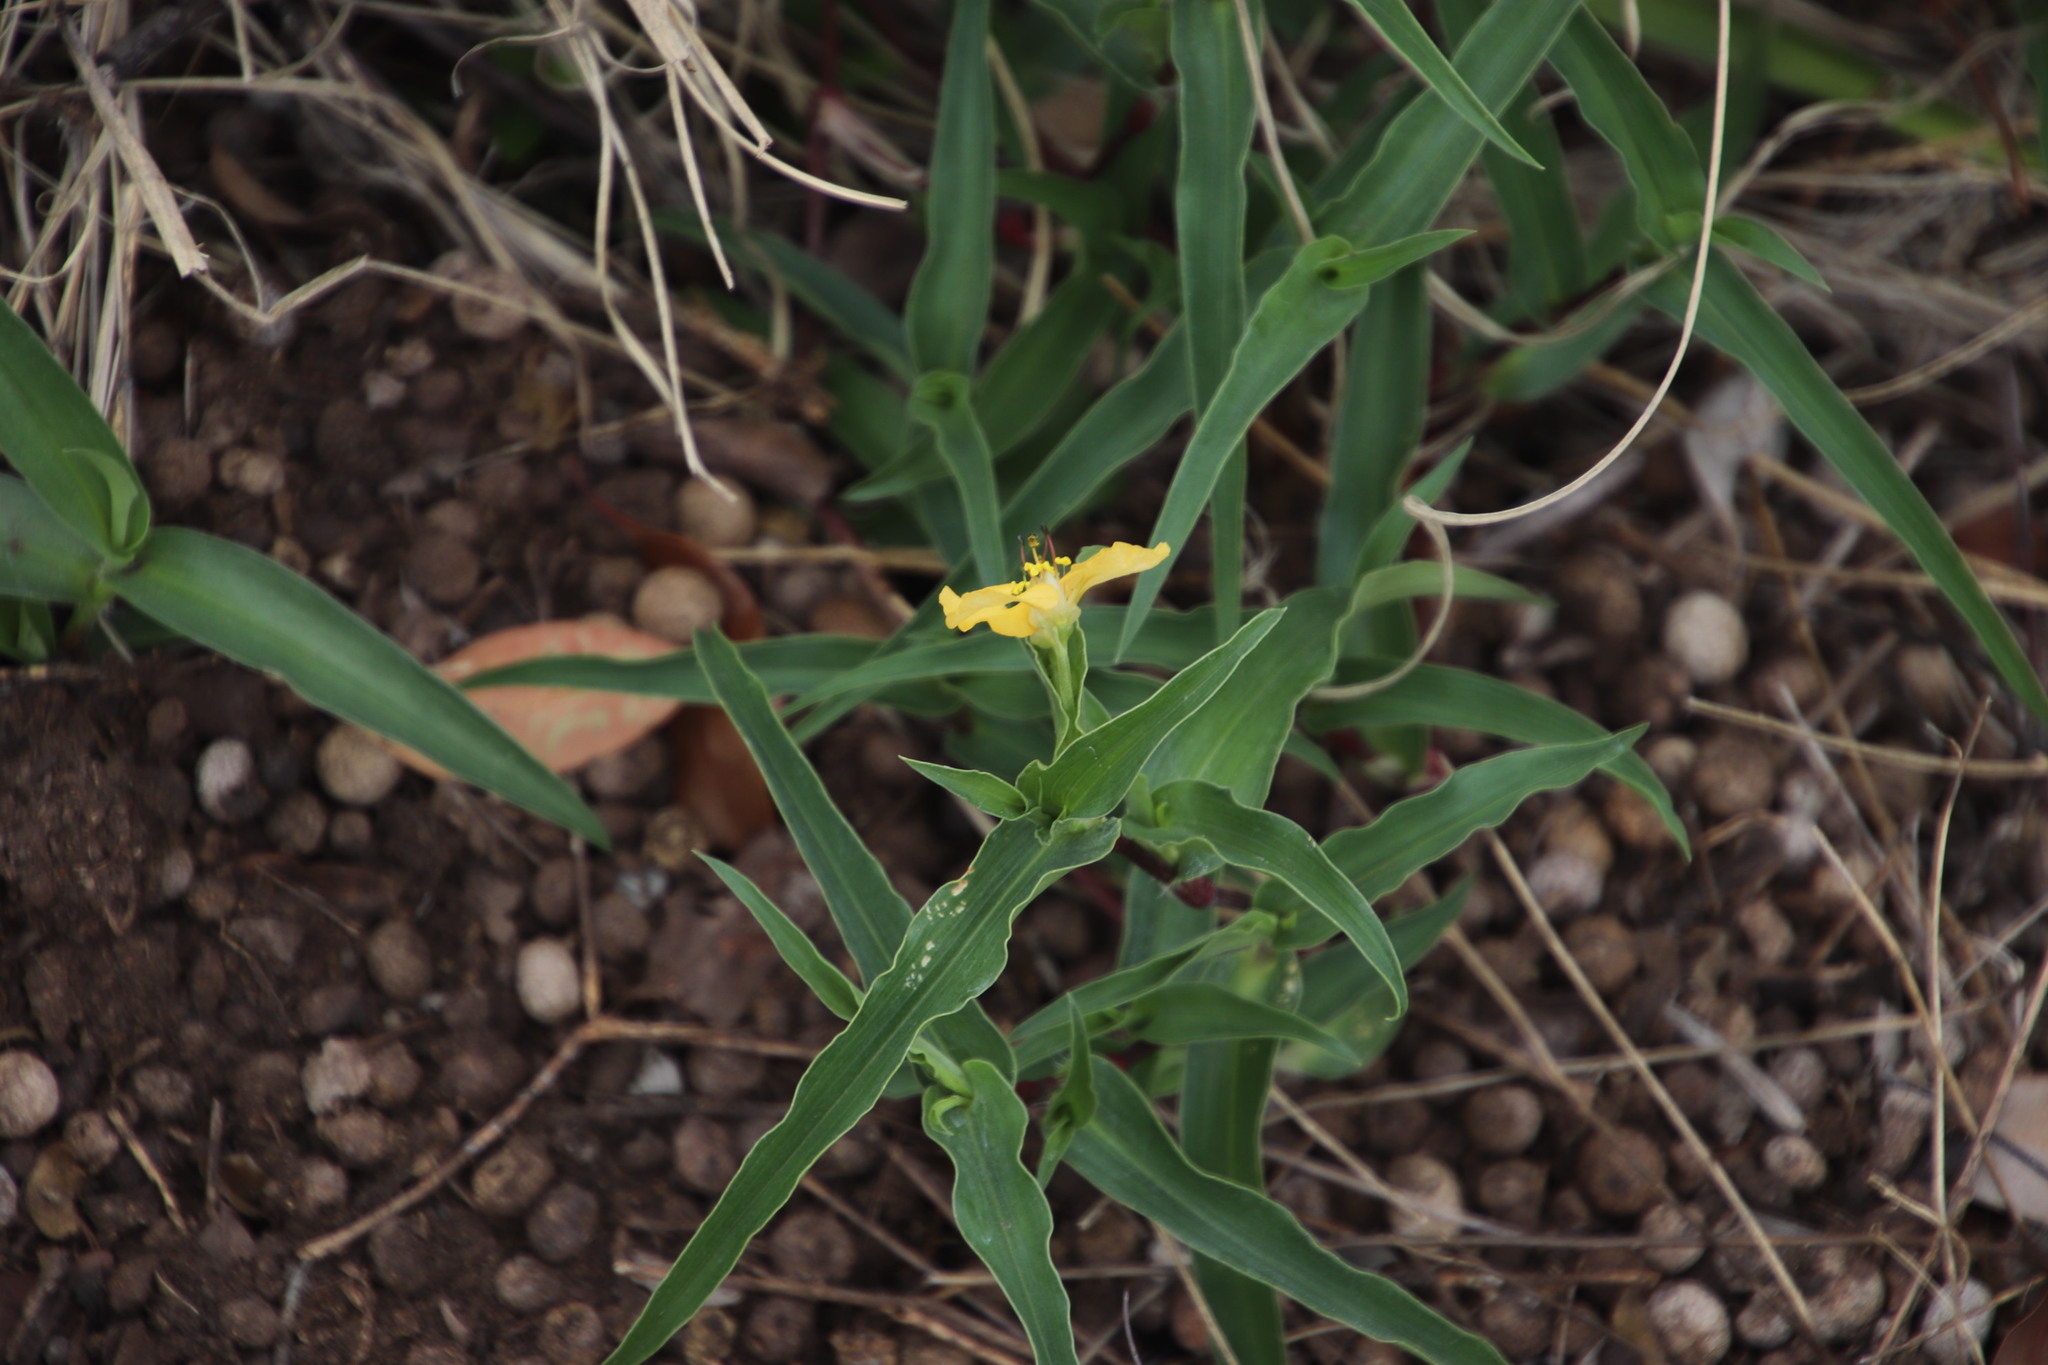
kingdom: Plantae
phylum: Tracheophyta
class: Liliopsida
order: Commelinales
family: Commelinaceae
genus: Commelina
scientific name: Commelina africana
